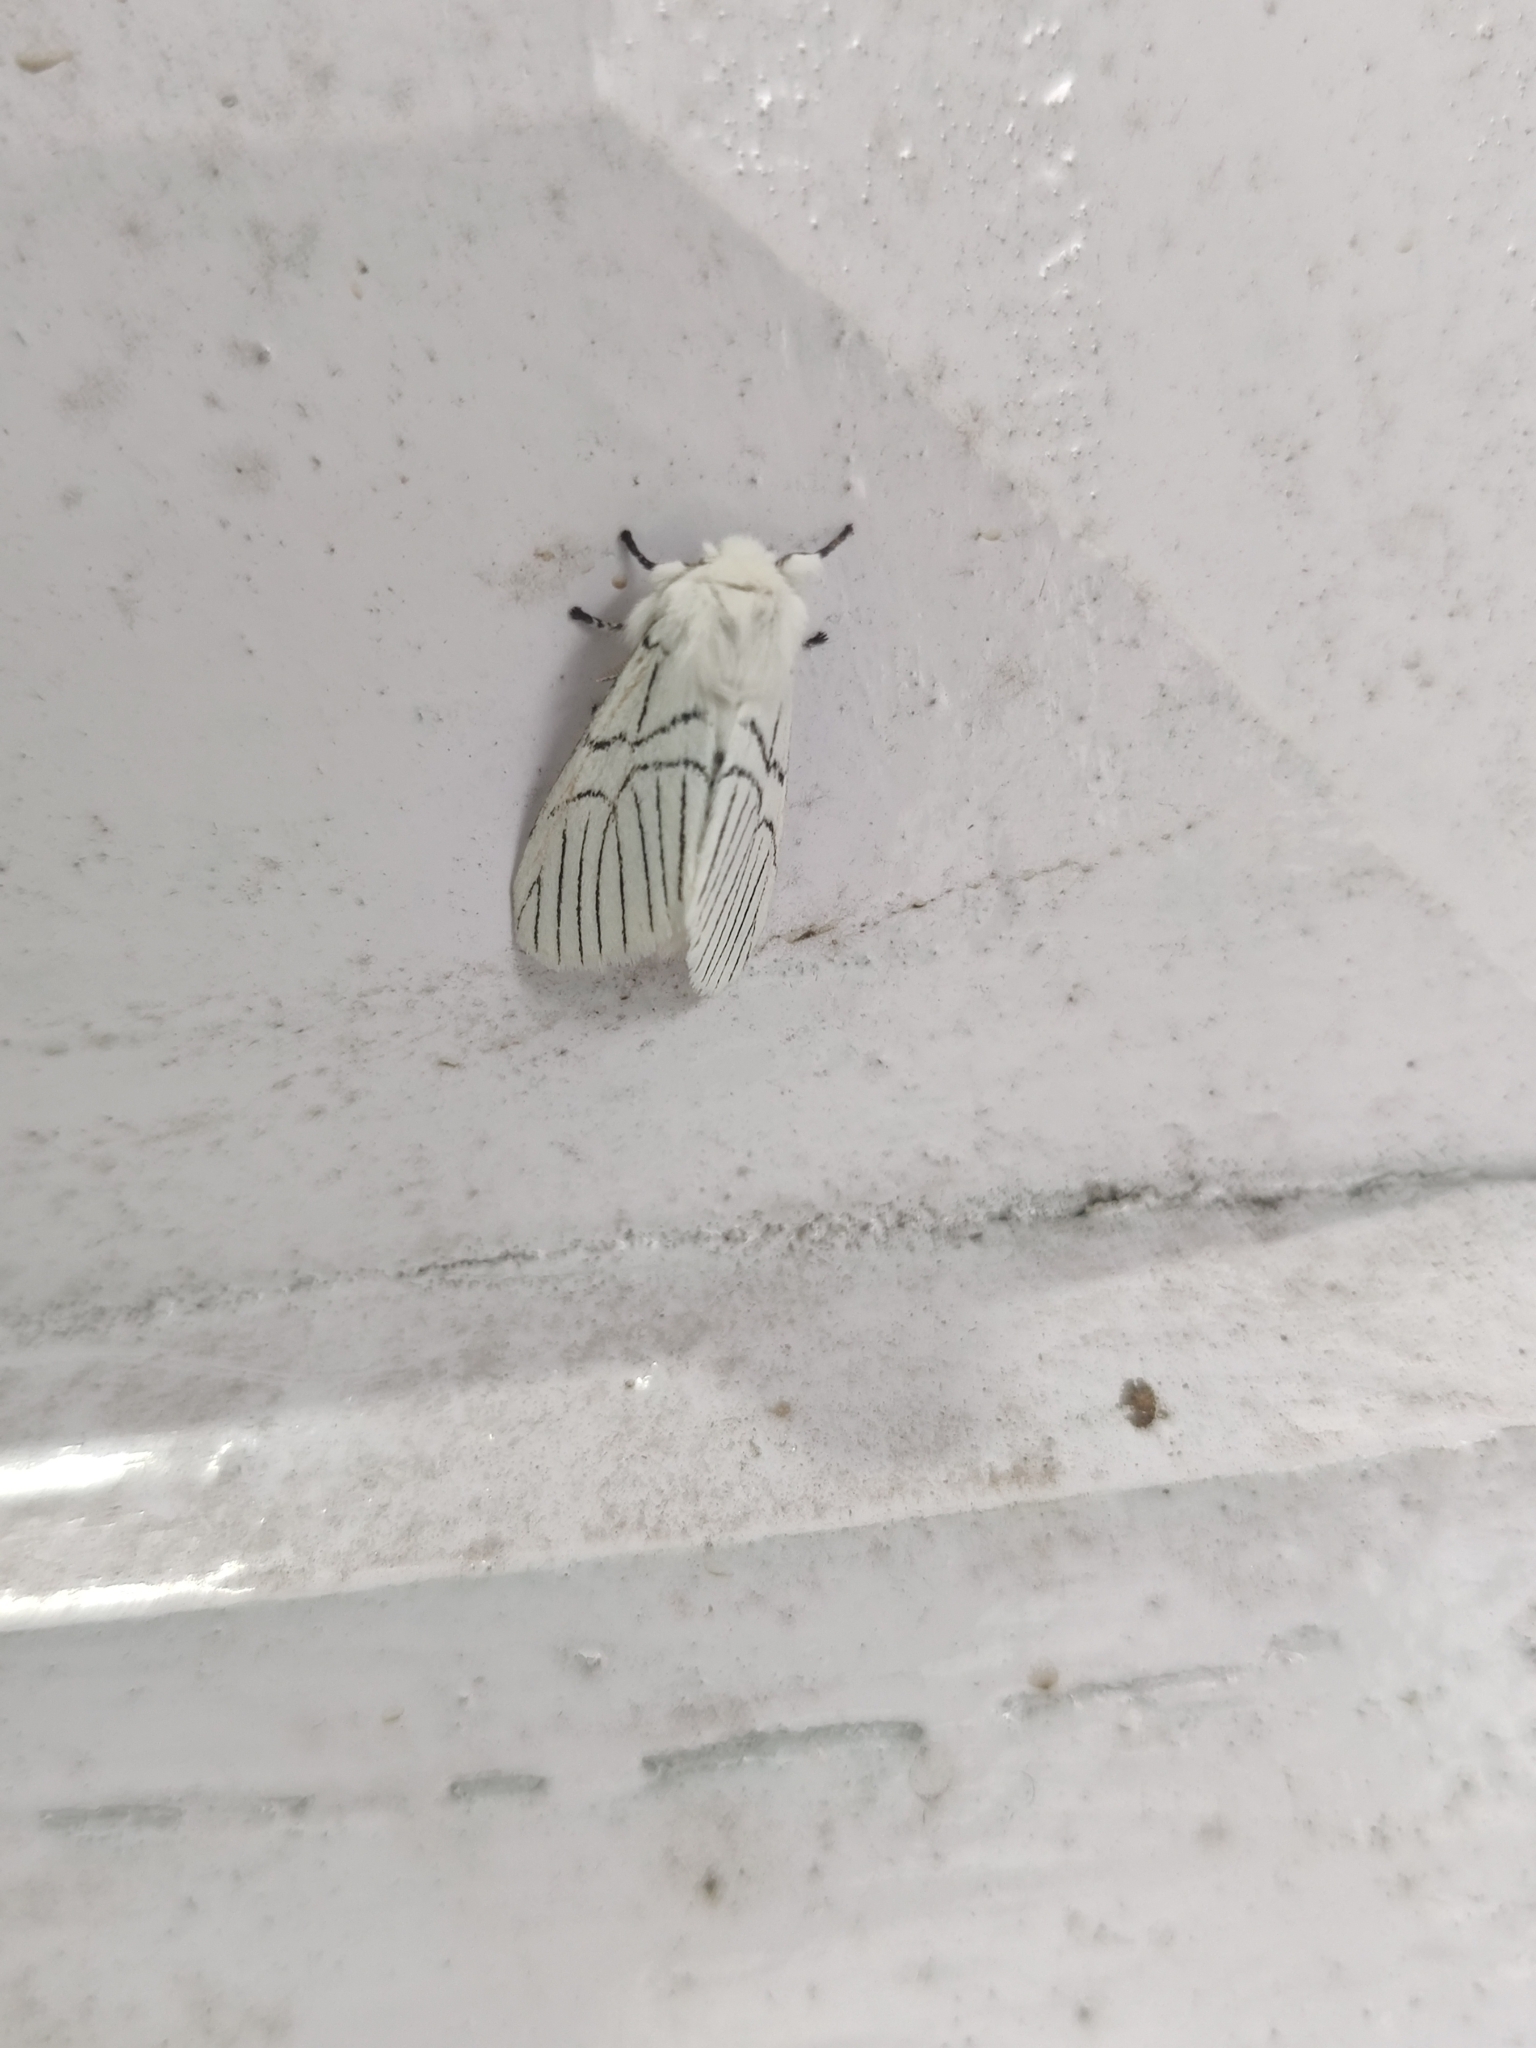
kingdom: Animalia
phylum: Arthropoda
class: Insecta
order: Lepidoptera
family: Notodontidae
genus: Oligoclona
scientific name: Oligoclona chrysolopha
